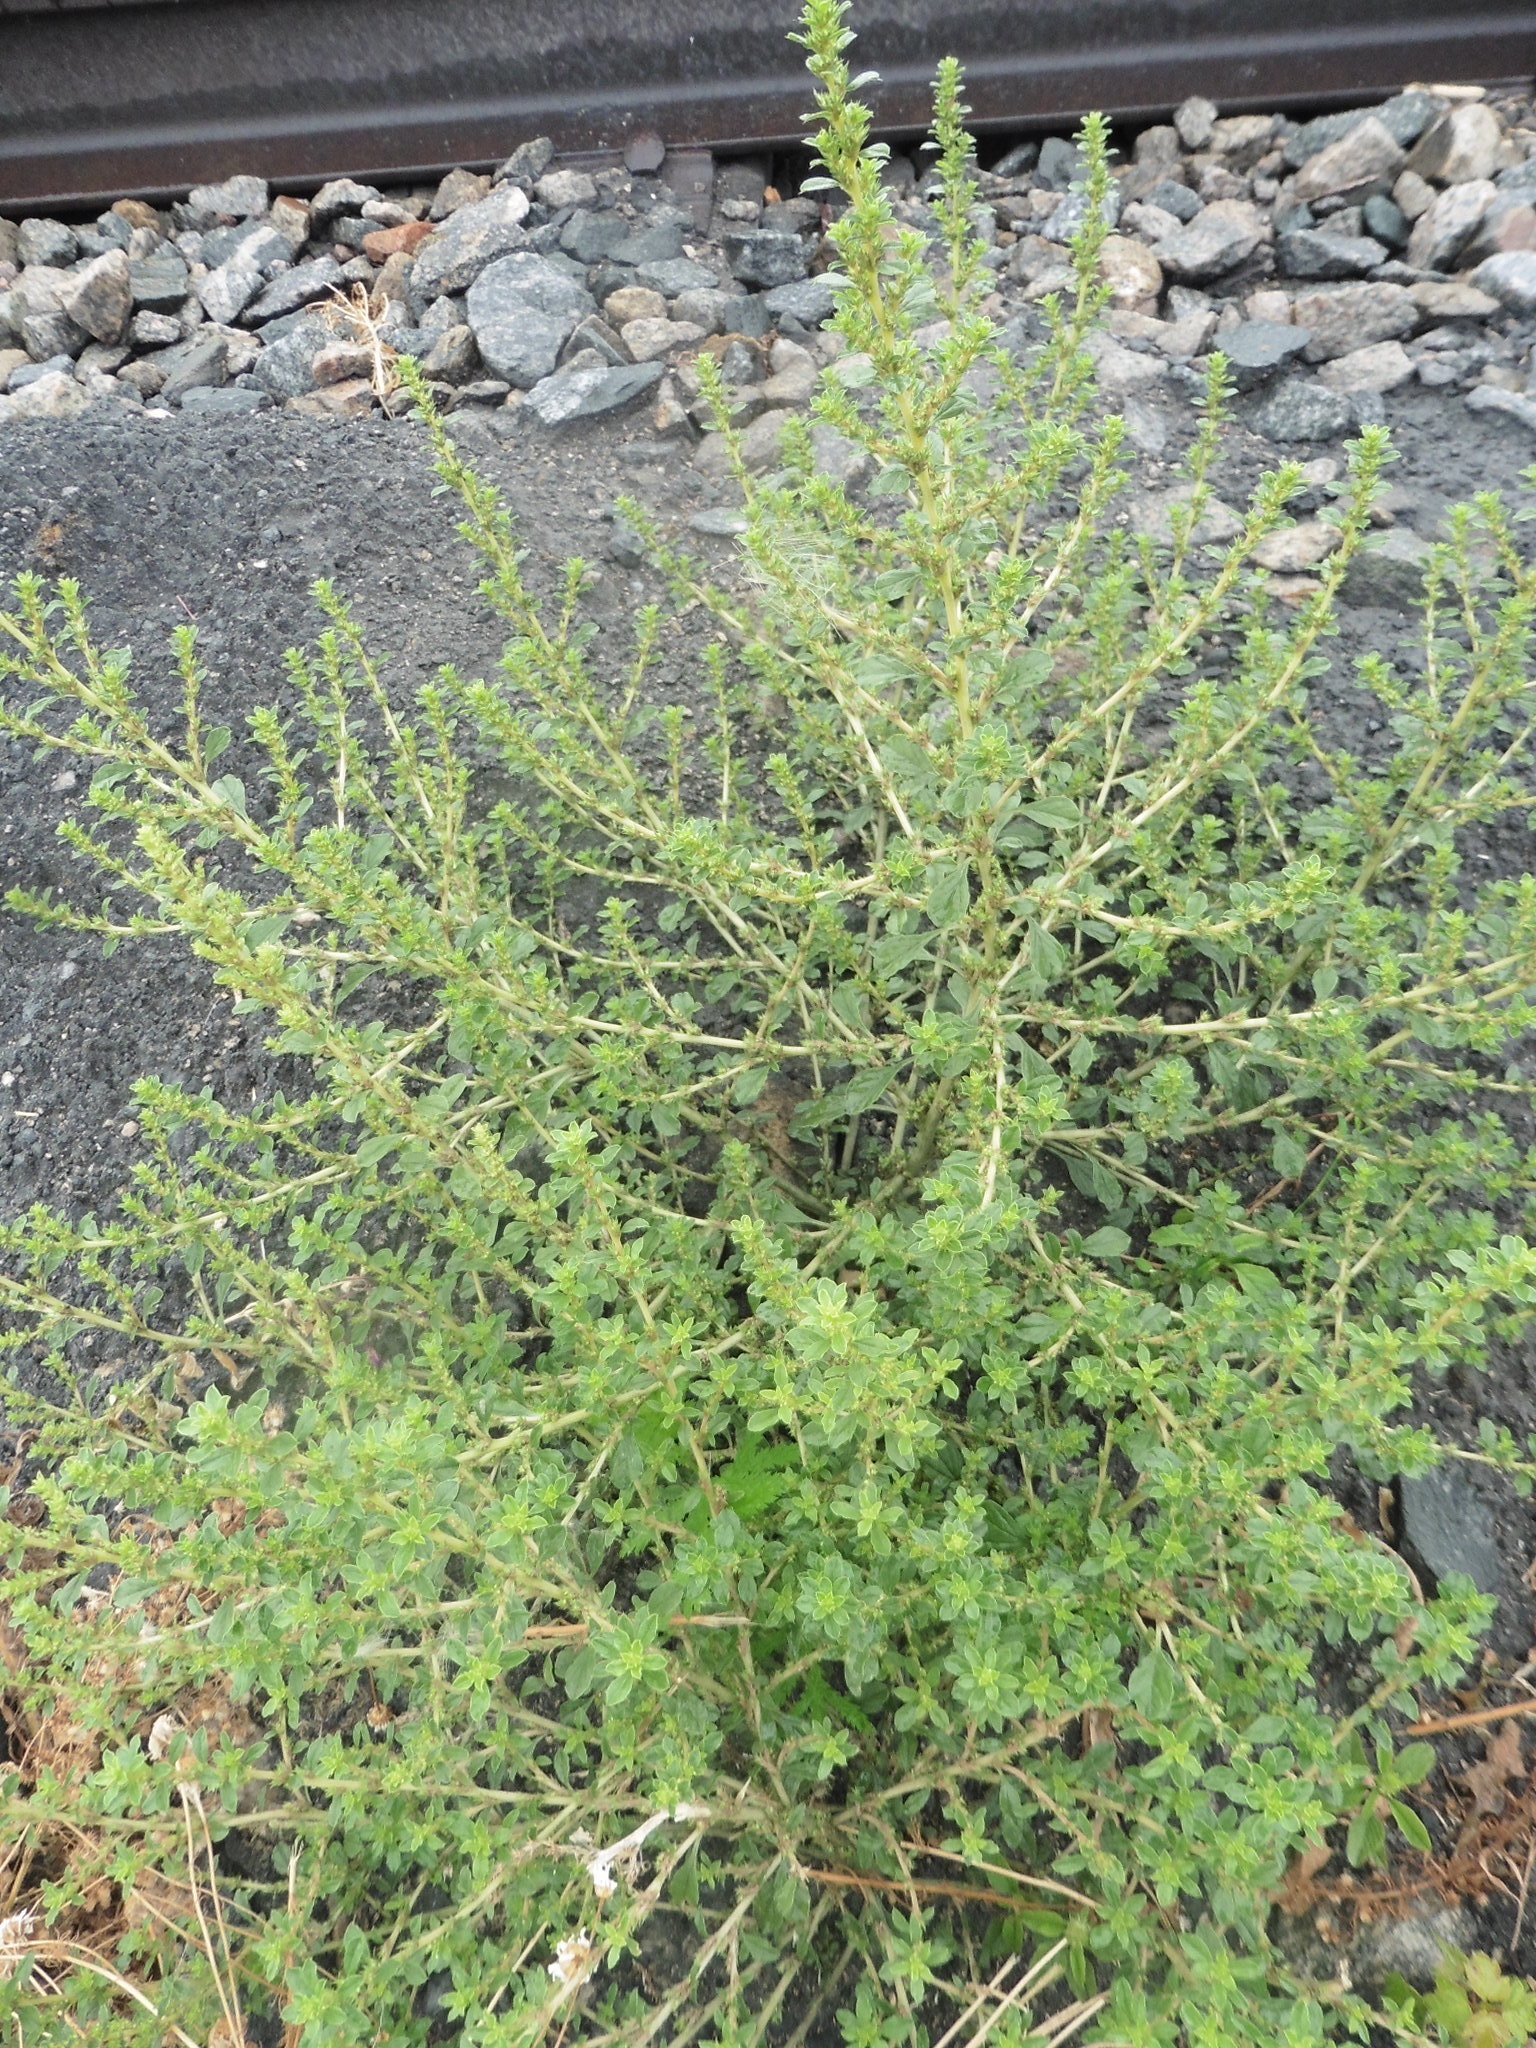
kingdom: Plantae
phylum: Tracheophyta
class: Magnoliopsida
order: Caryophyllales
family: Amaranthaceae
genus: Amaranthus
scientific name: Amaranthus albus
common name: White pigweed
